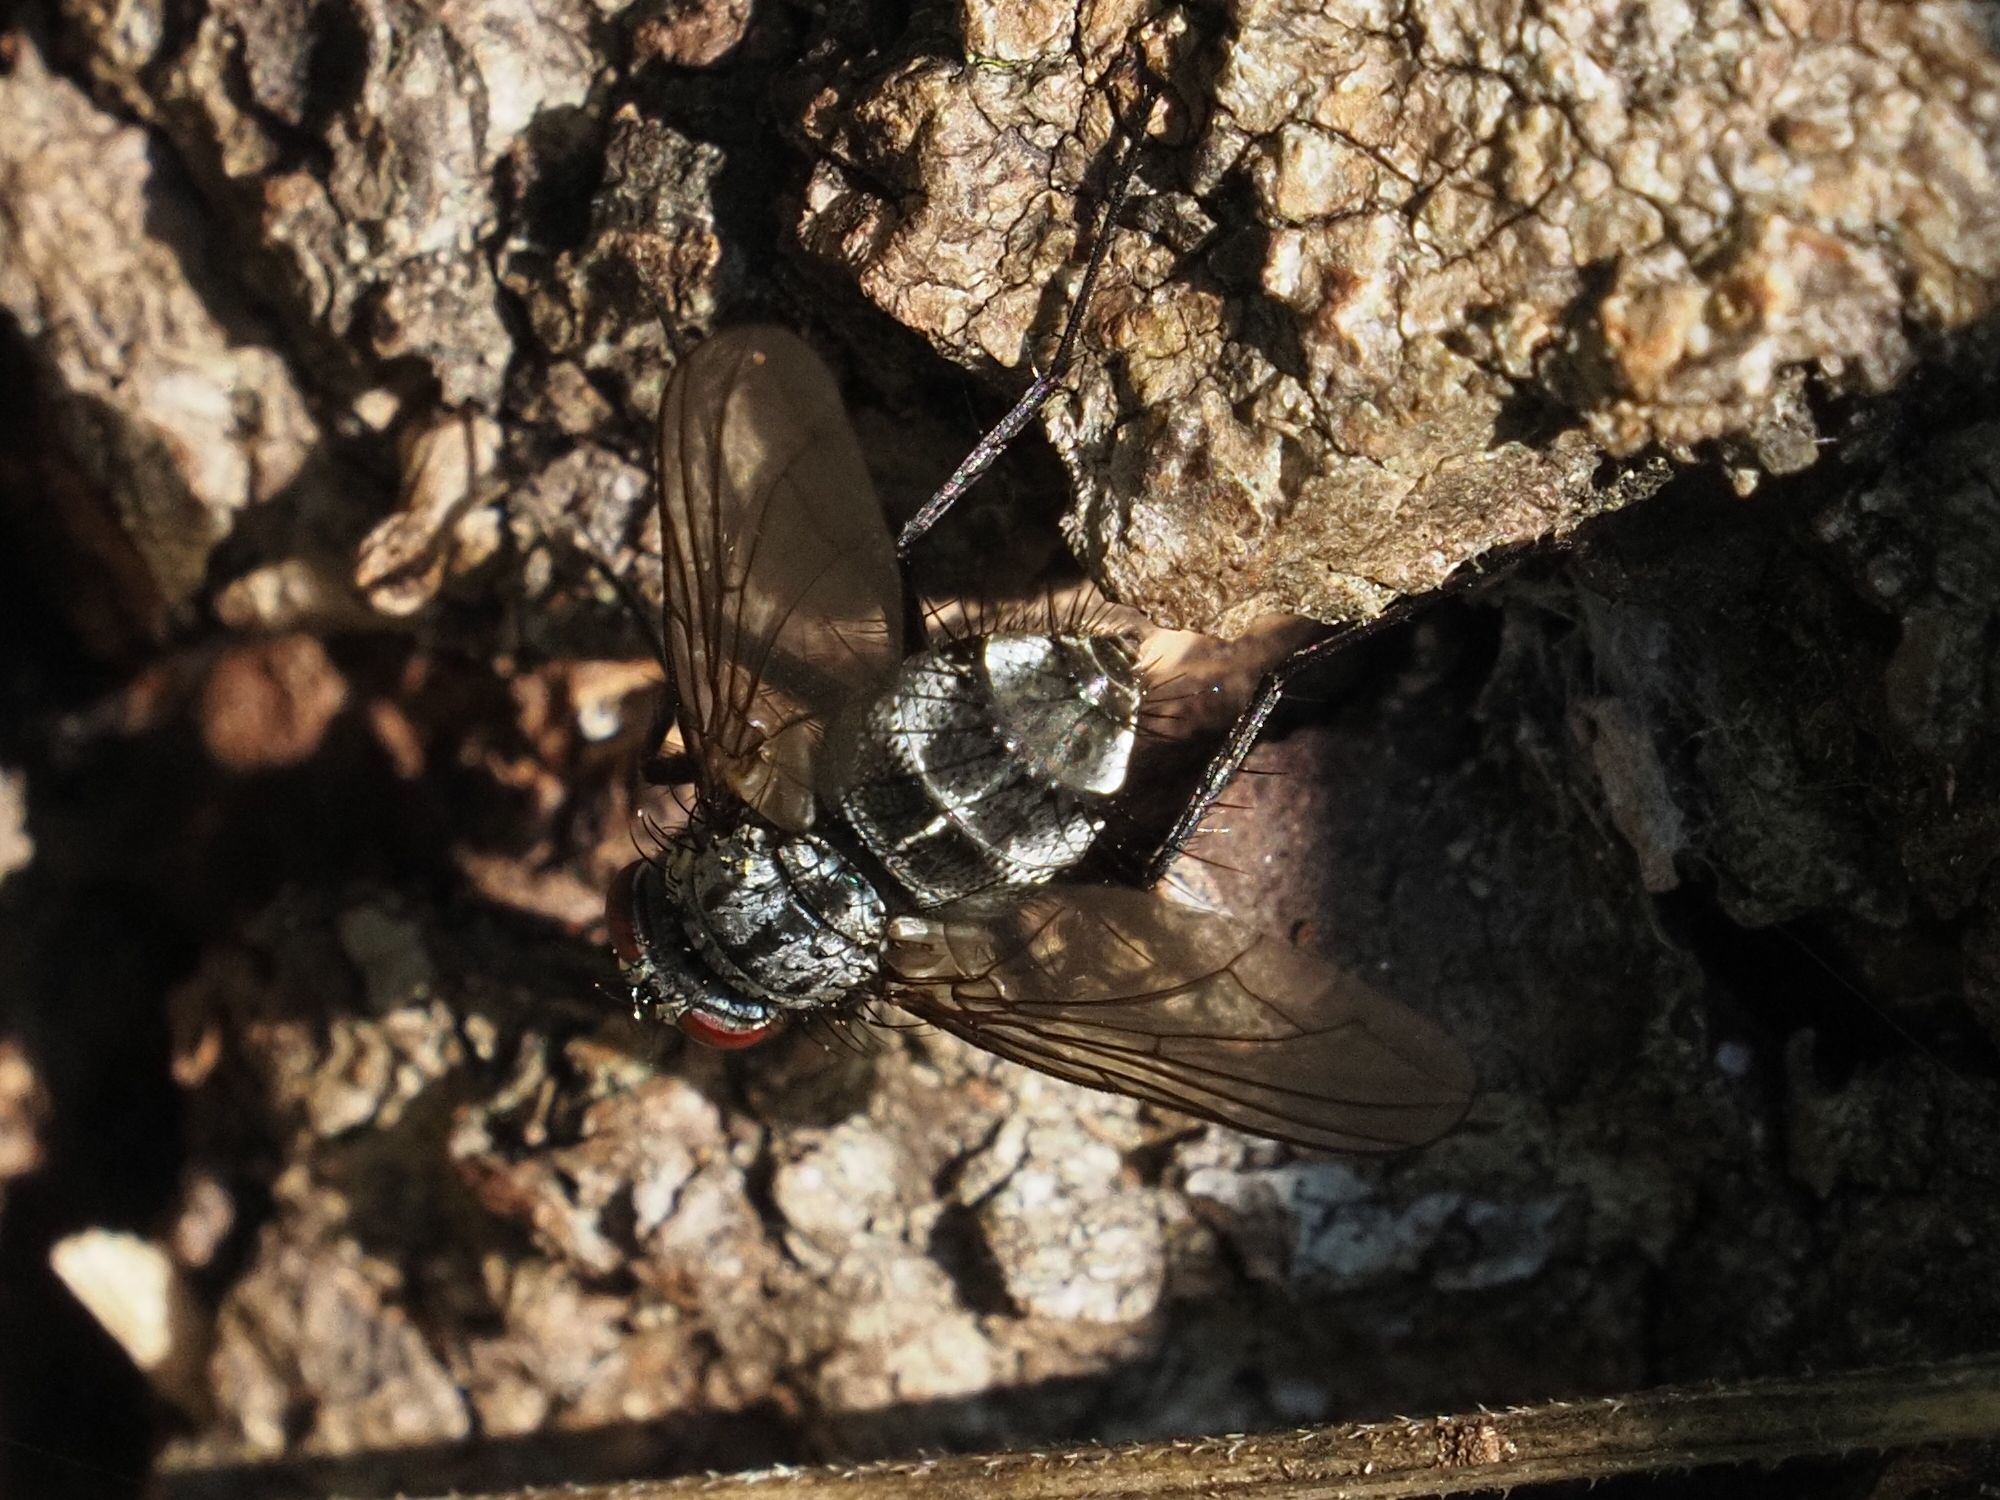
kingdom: Animalia
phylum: Arthropoda
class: Insecta
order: Diptera
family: Tachinidae
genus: Dinera
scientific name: Dinera ferina
